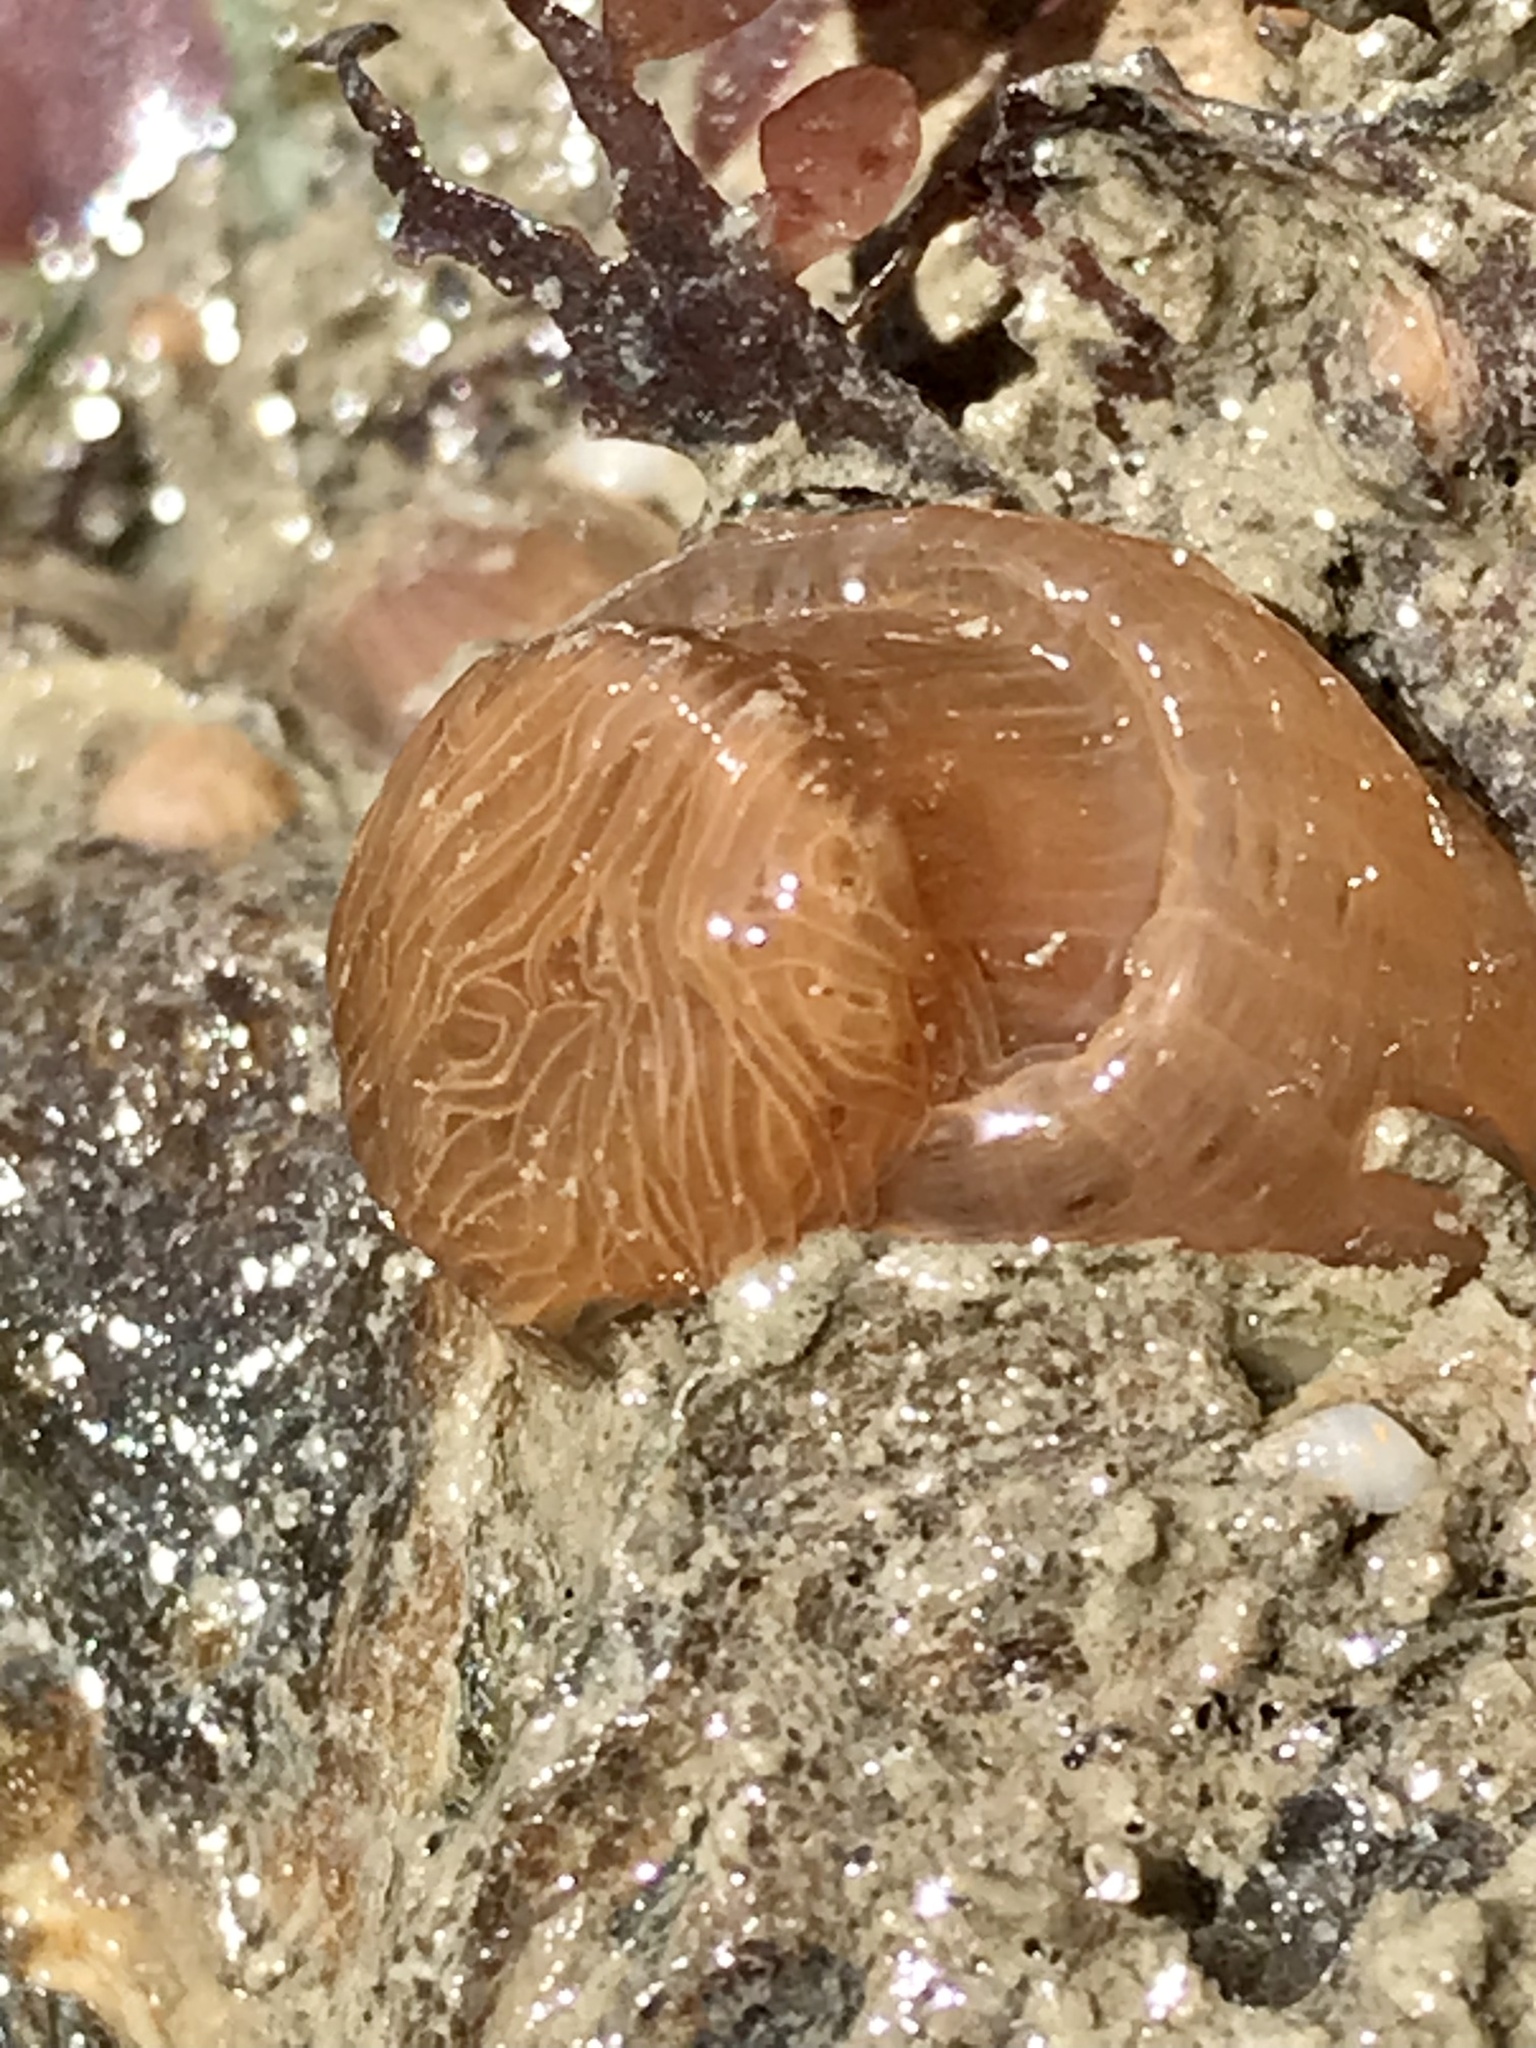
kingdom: Animalia
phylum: Cnidaria
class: Anthozoa
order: Actiniaria
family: Diadumenidae
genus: Diadumene
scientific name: Diadumene leucolena
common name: White anemone
